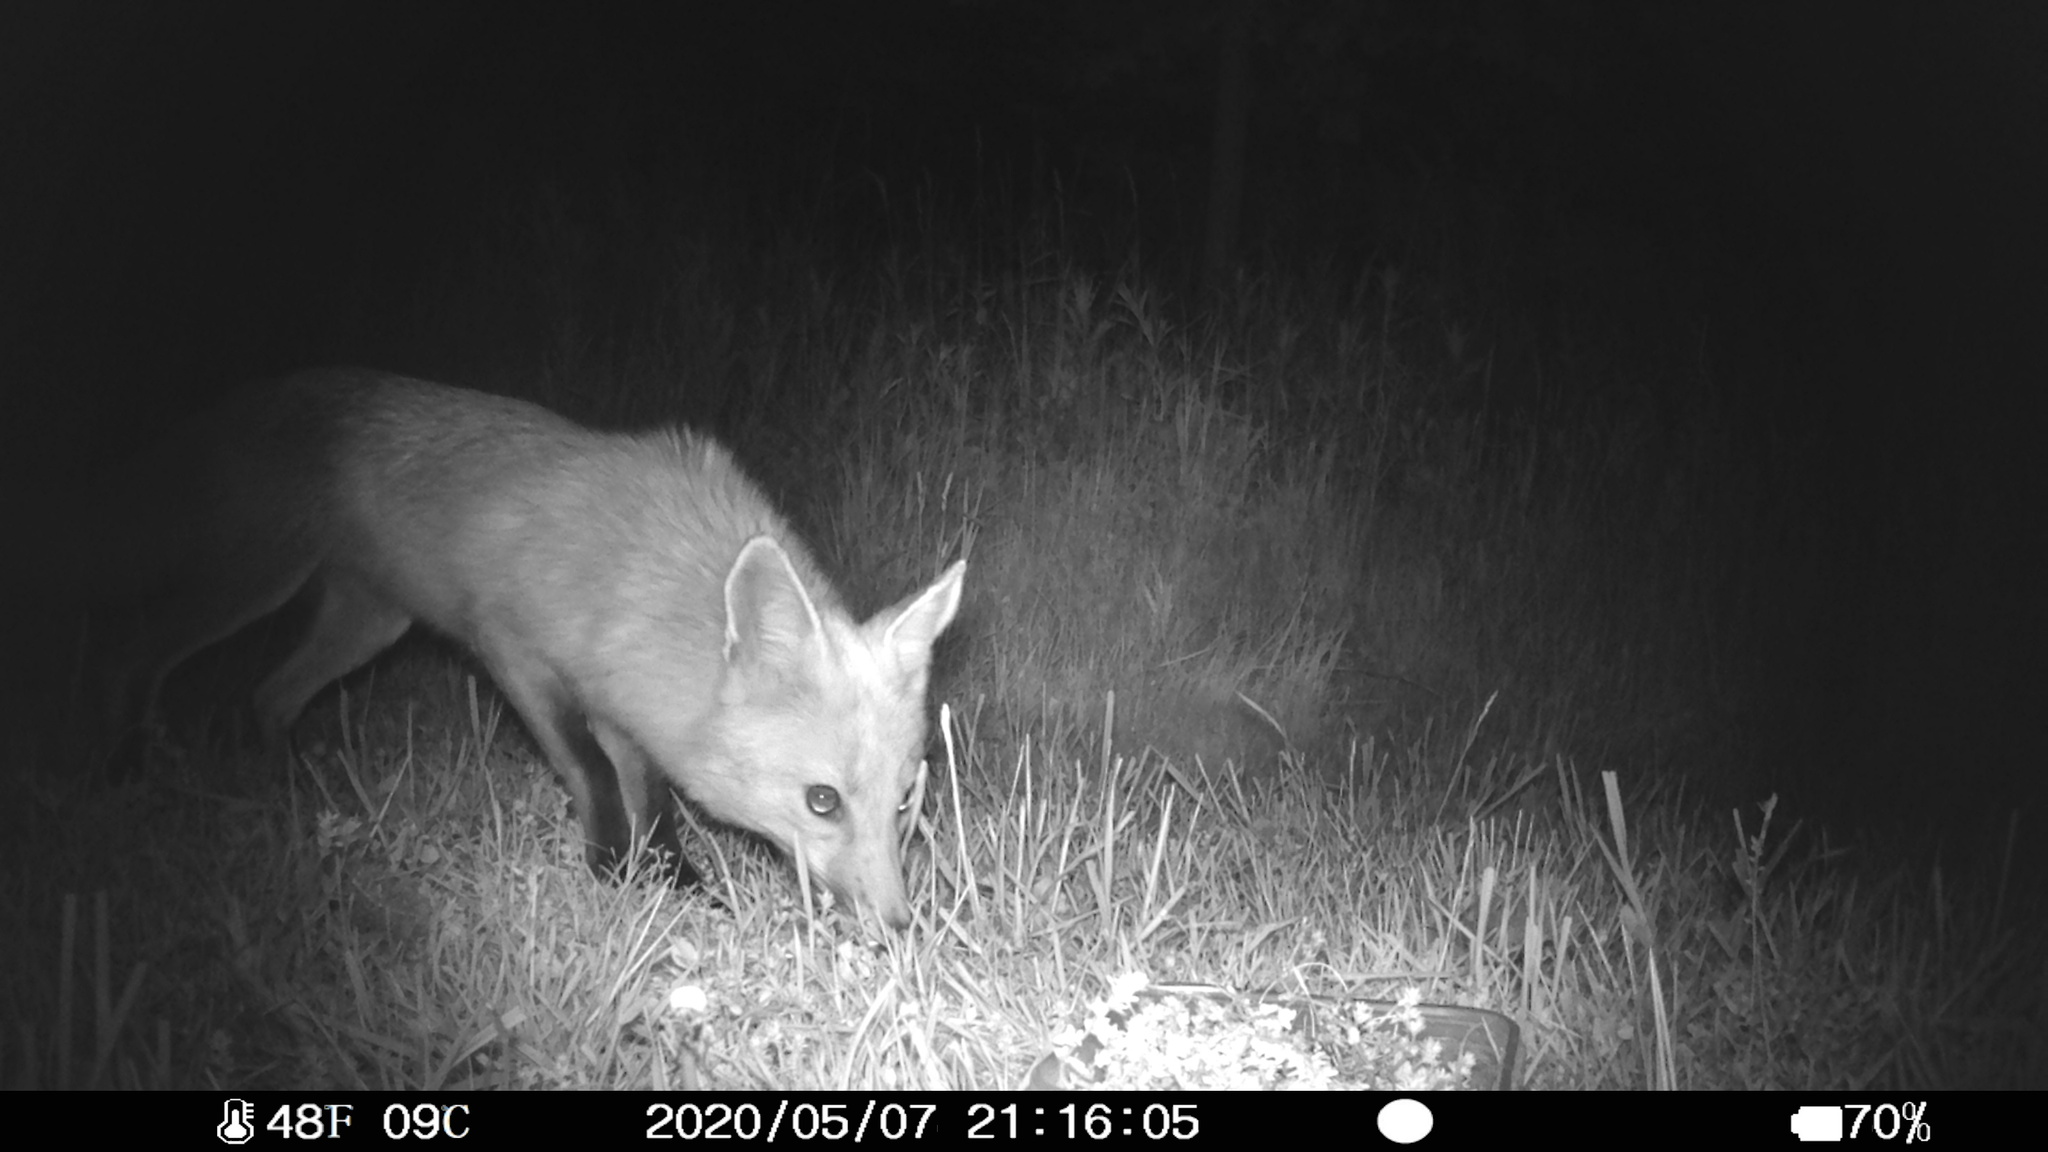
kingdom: Animalia
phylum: Chordata
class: Mammalia
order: Carnivora
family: Canidae
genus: Vulpes
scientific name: Vulpes vulpes
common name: Red fox
